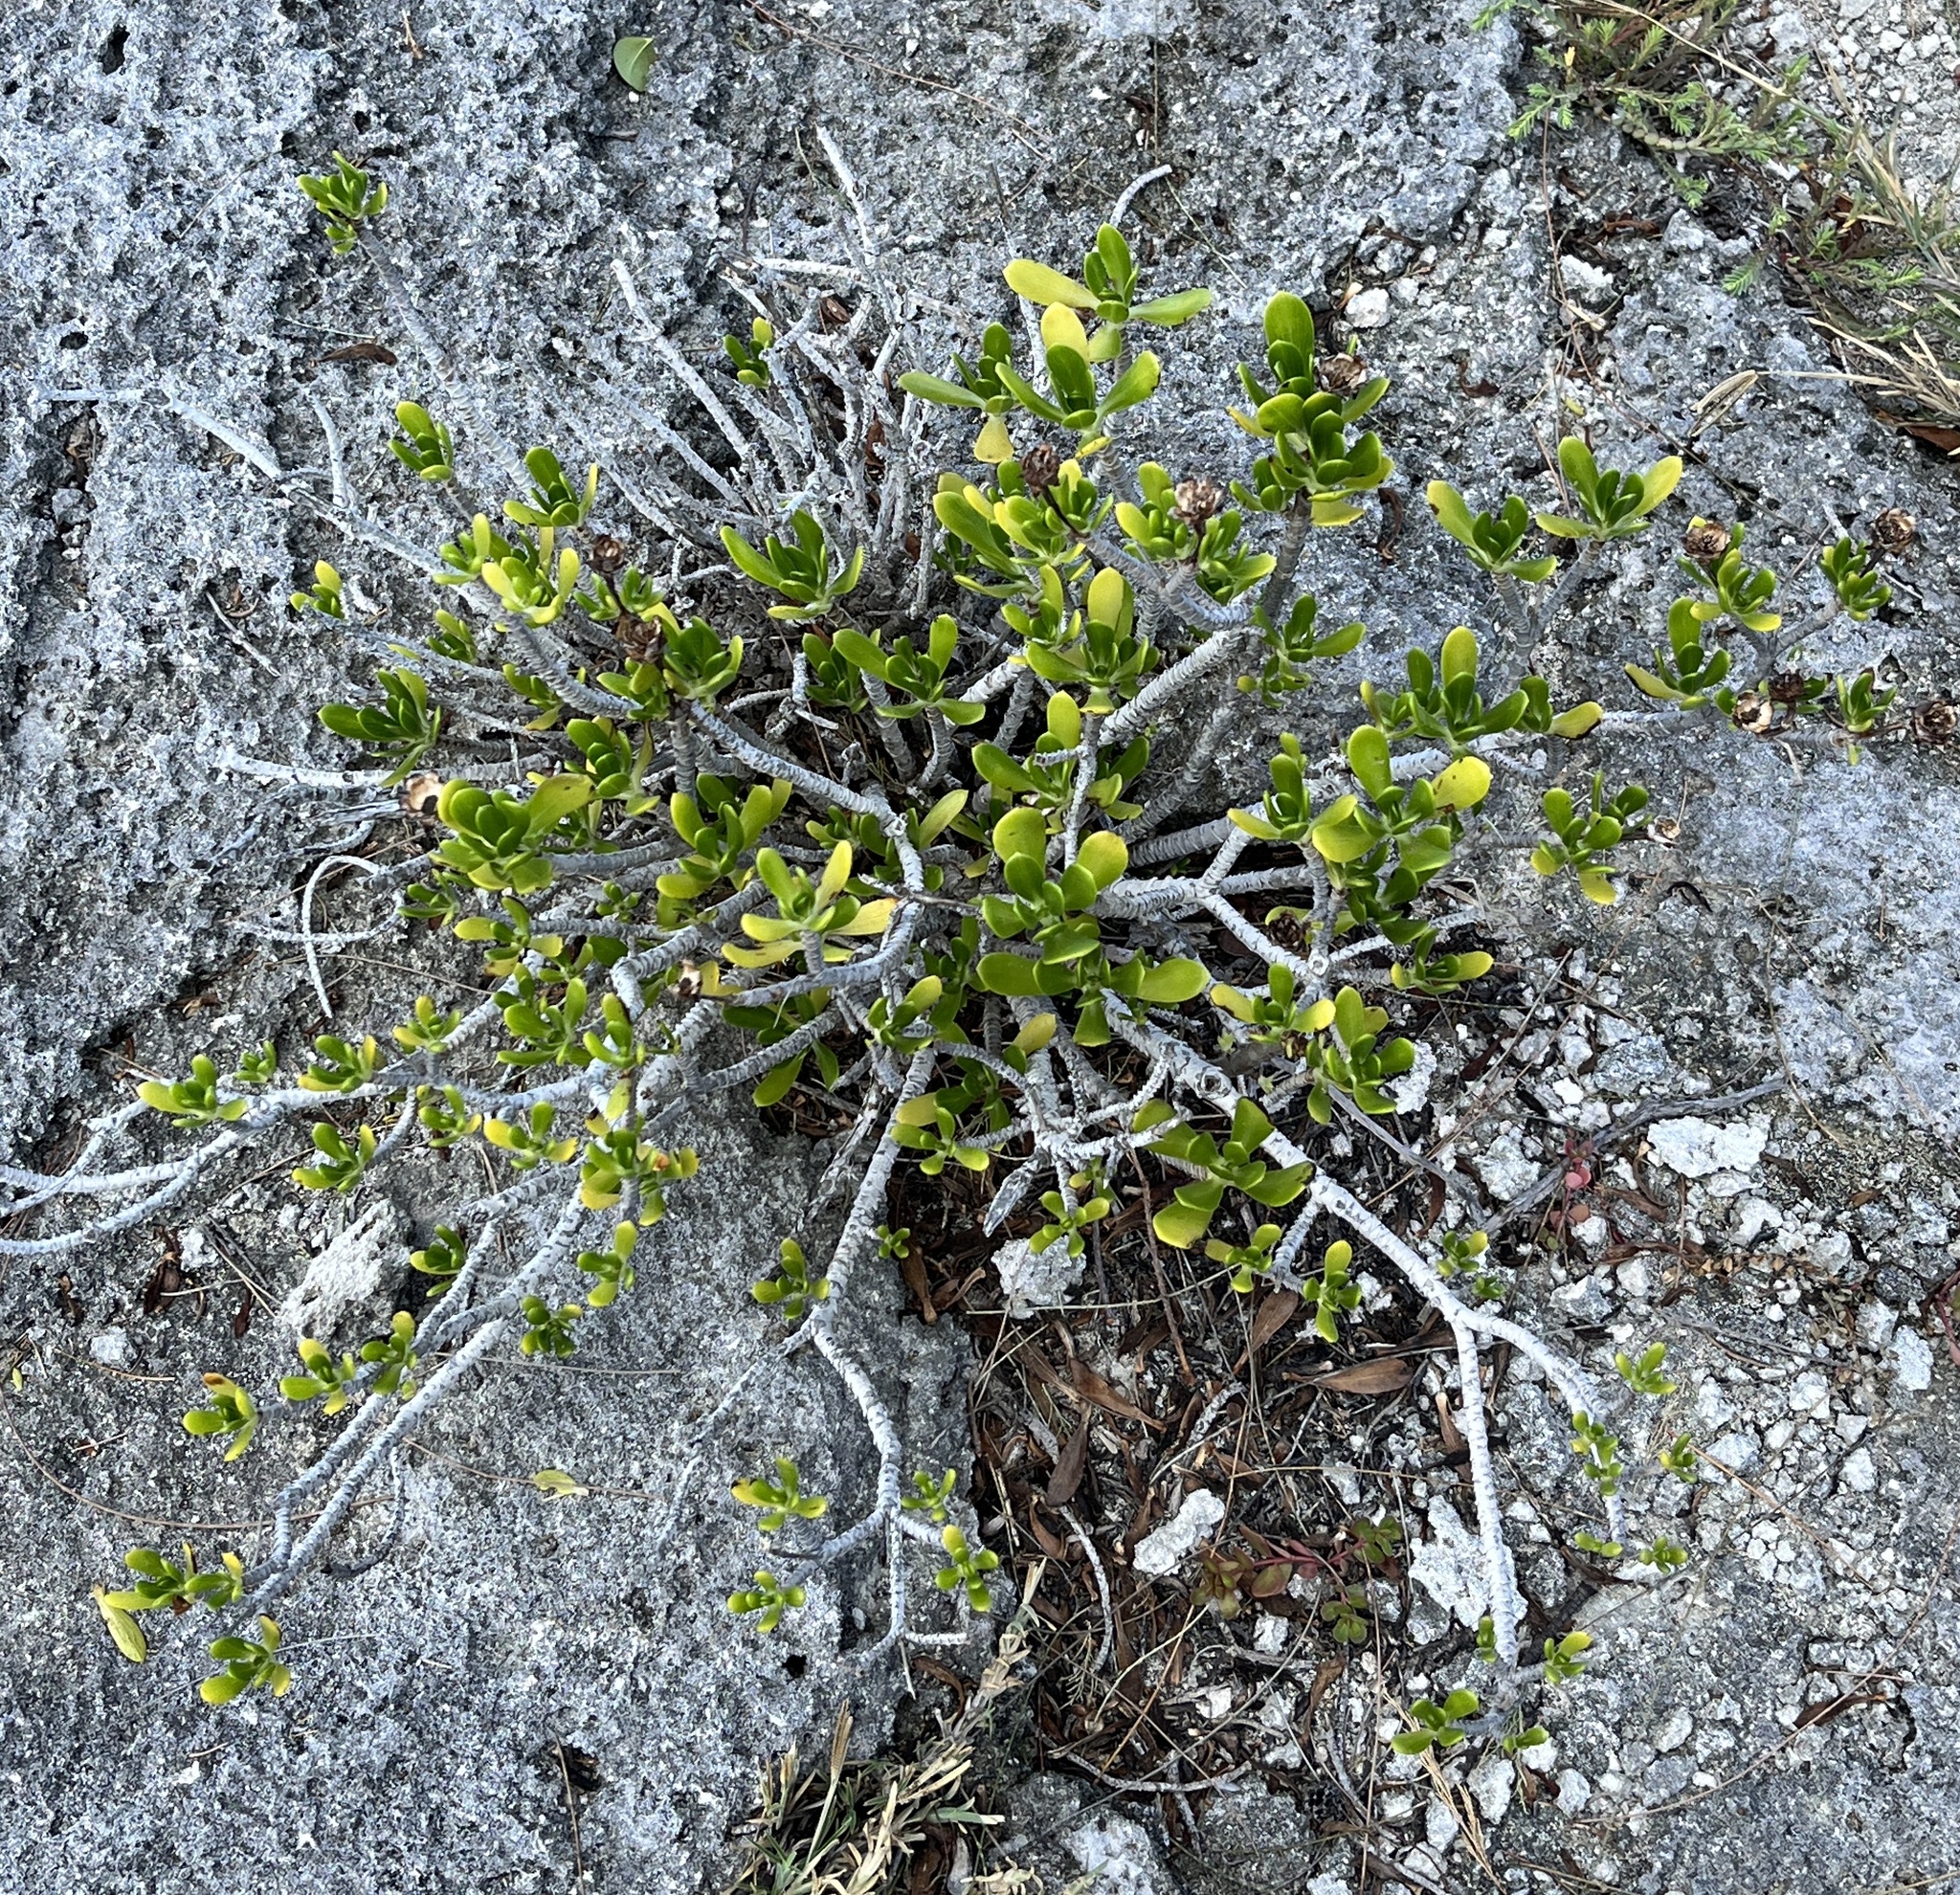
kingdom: Plantae
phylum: Tracheophyta
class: Magnoliopsida
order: Asterales
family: Asteraceae
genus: Borrichia
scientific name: Borrichia arborescens
